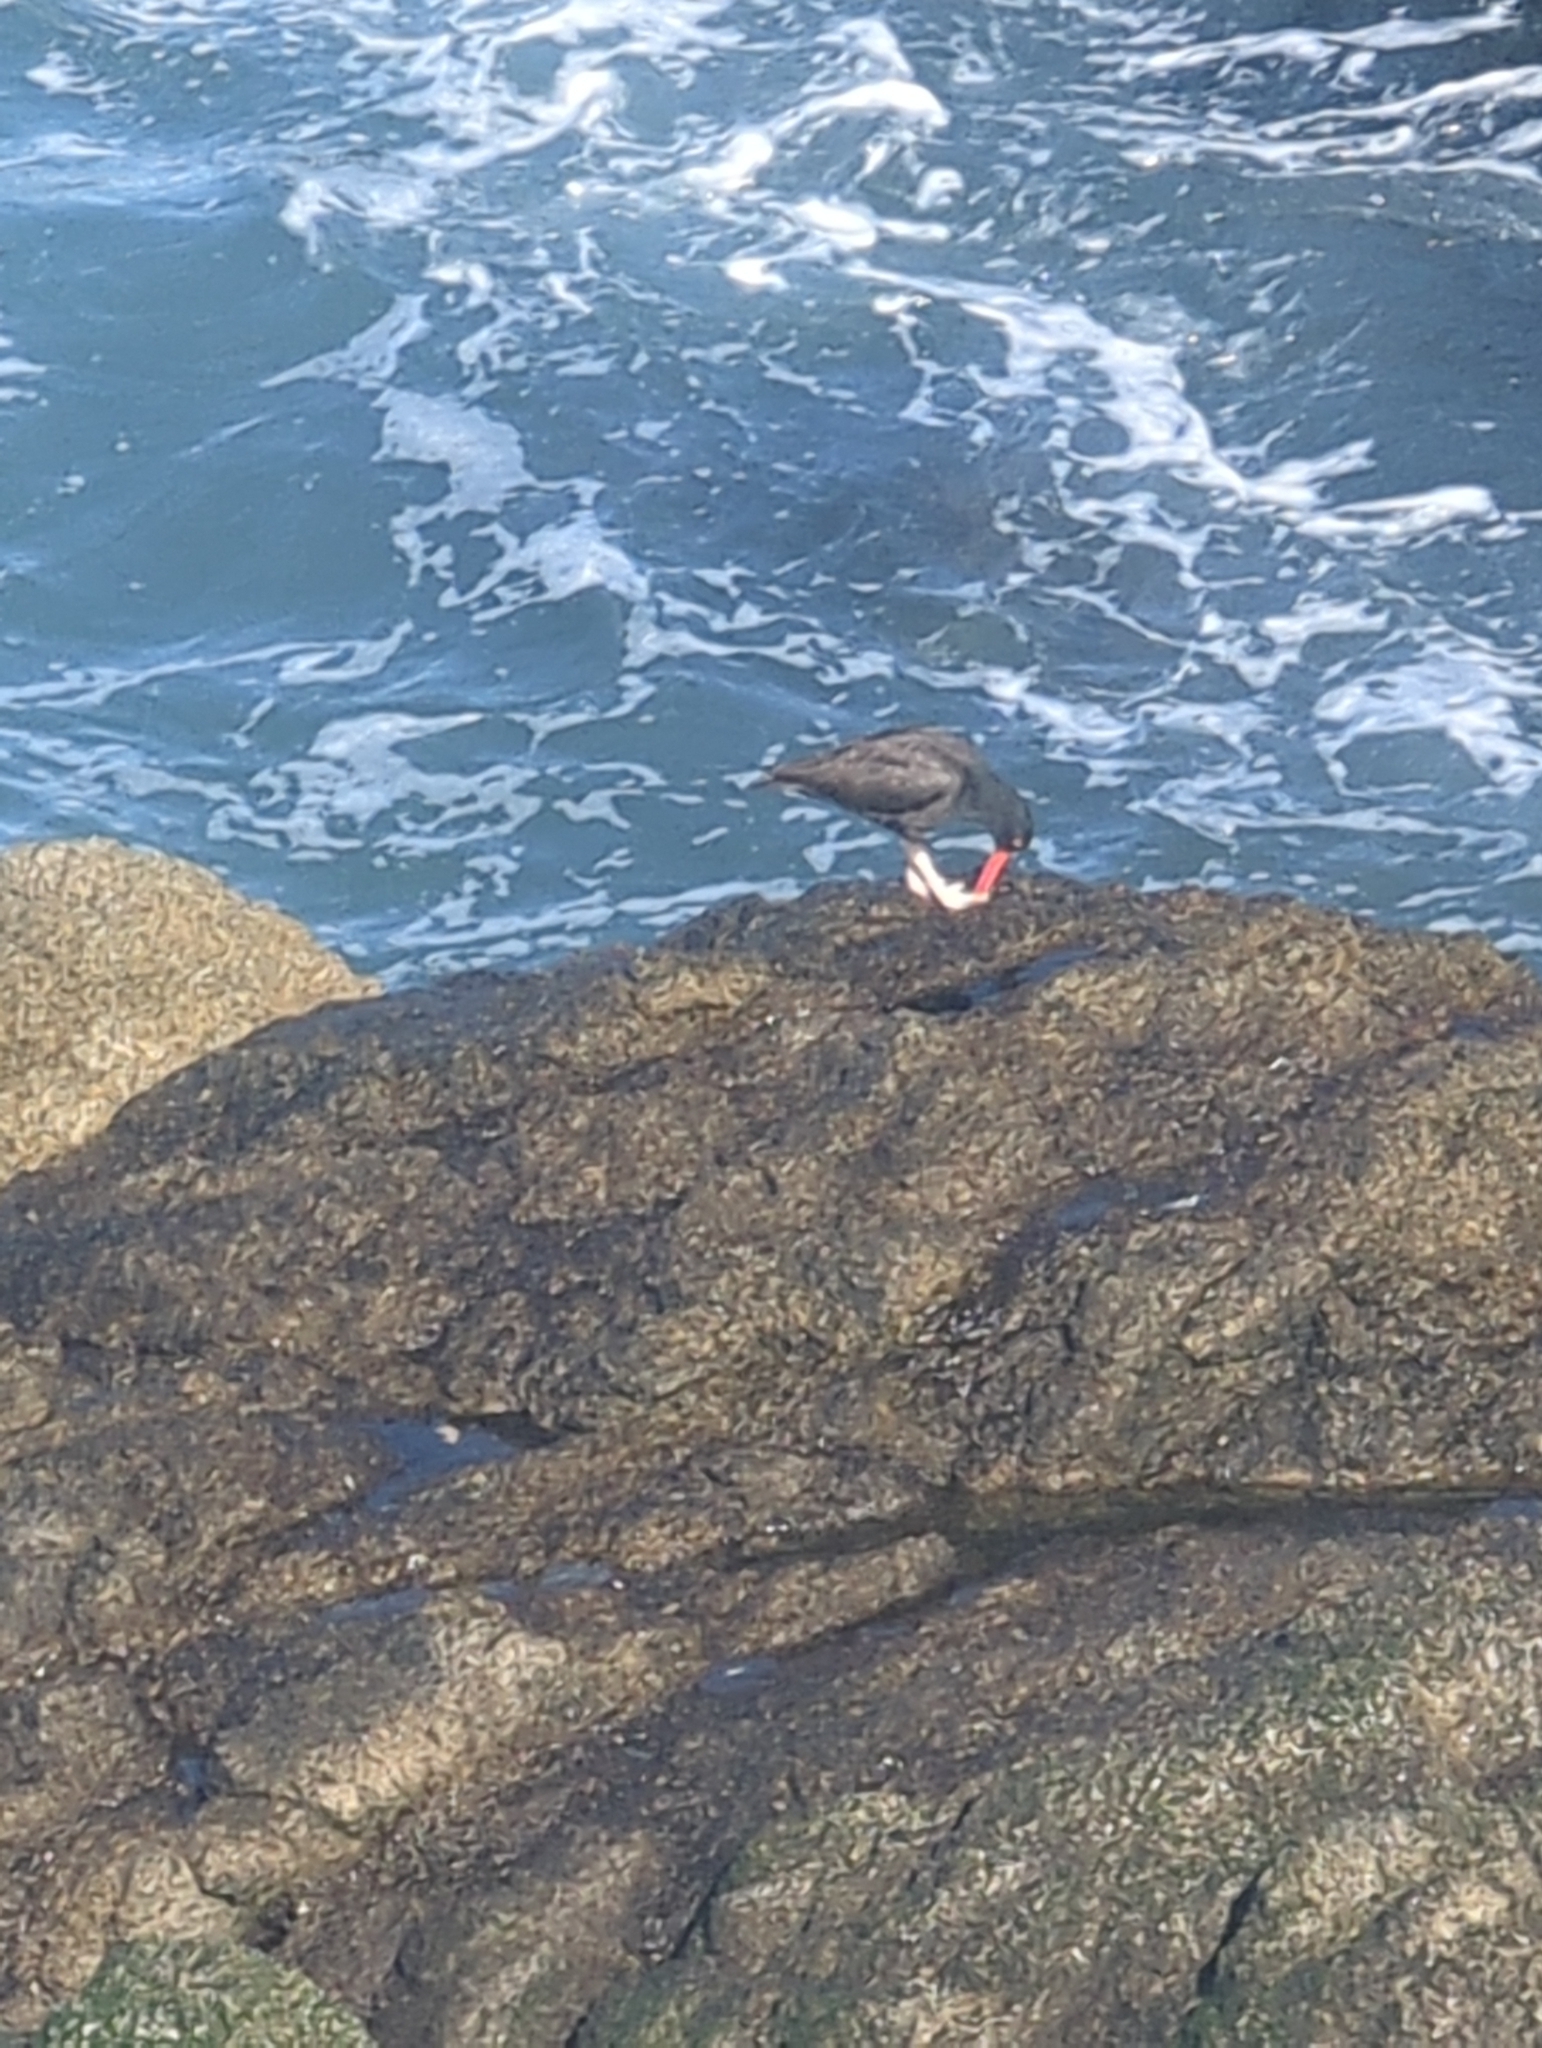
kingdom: Animalia
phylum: Chordata
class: Aves
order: Charadriiformes
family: Haematopodidae
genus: Haematopus
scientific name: Haematopus bachmani
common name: Black oystercatcher
